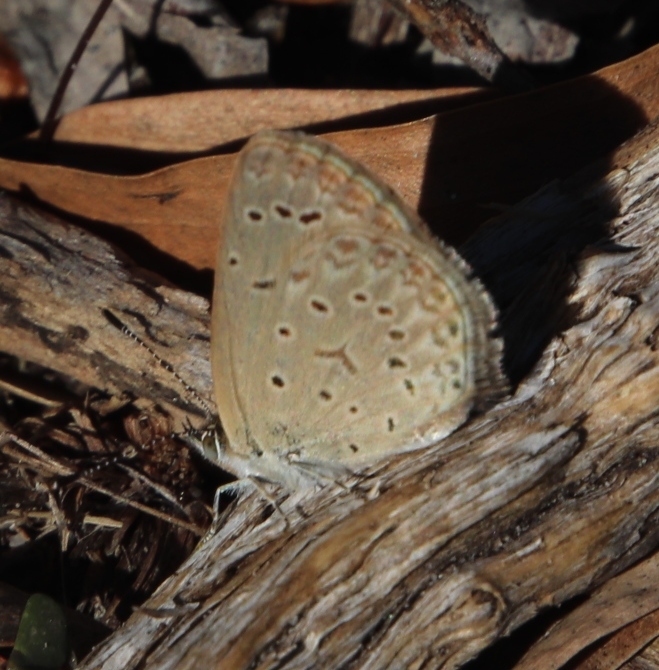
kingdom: Animalia
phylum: Arthropoda
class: Insecta
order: Lepidoptera
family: Lycaenidae
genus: Zizeeria
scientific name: Zizeeria knysna
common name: African grass blue
